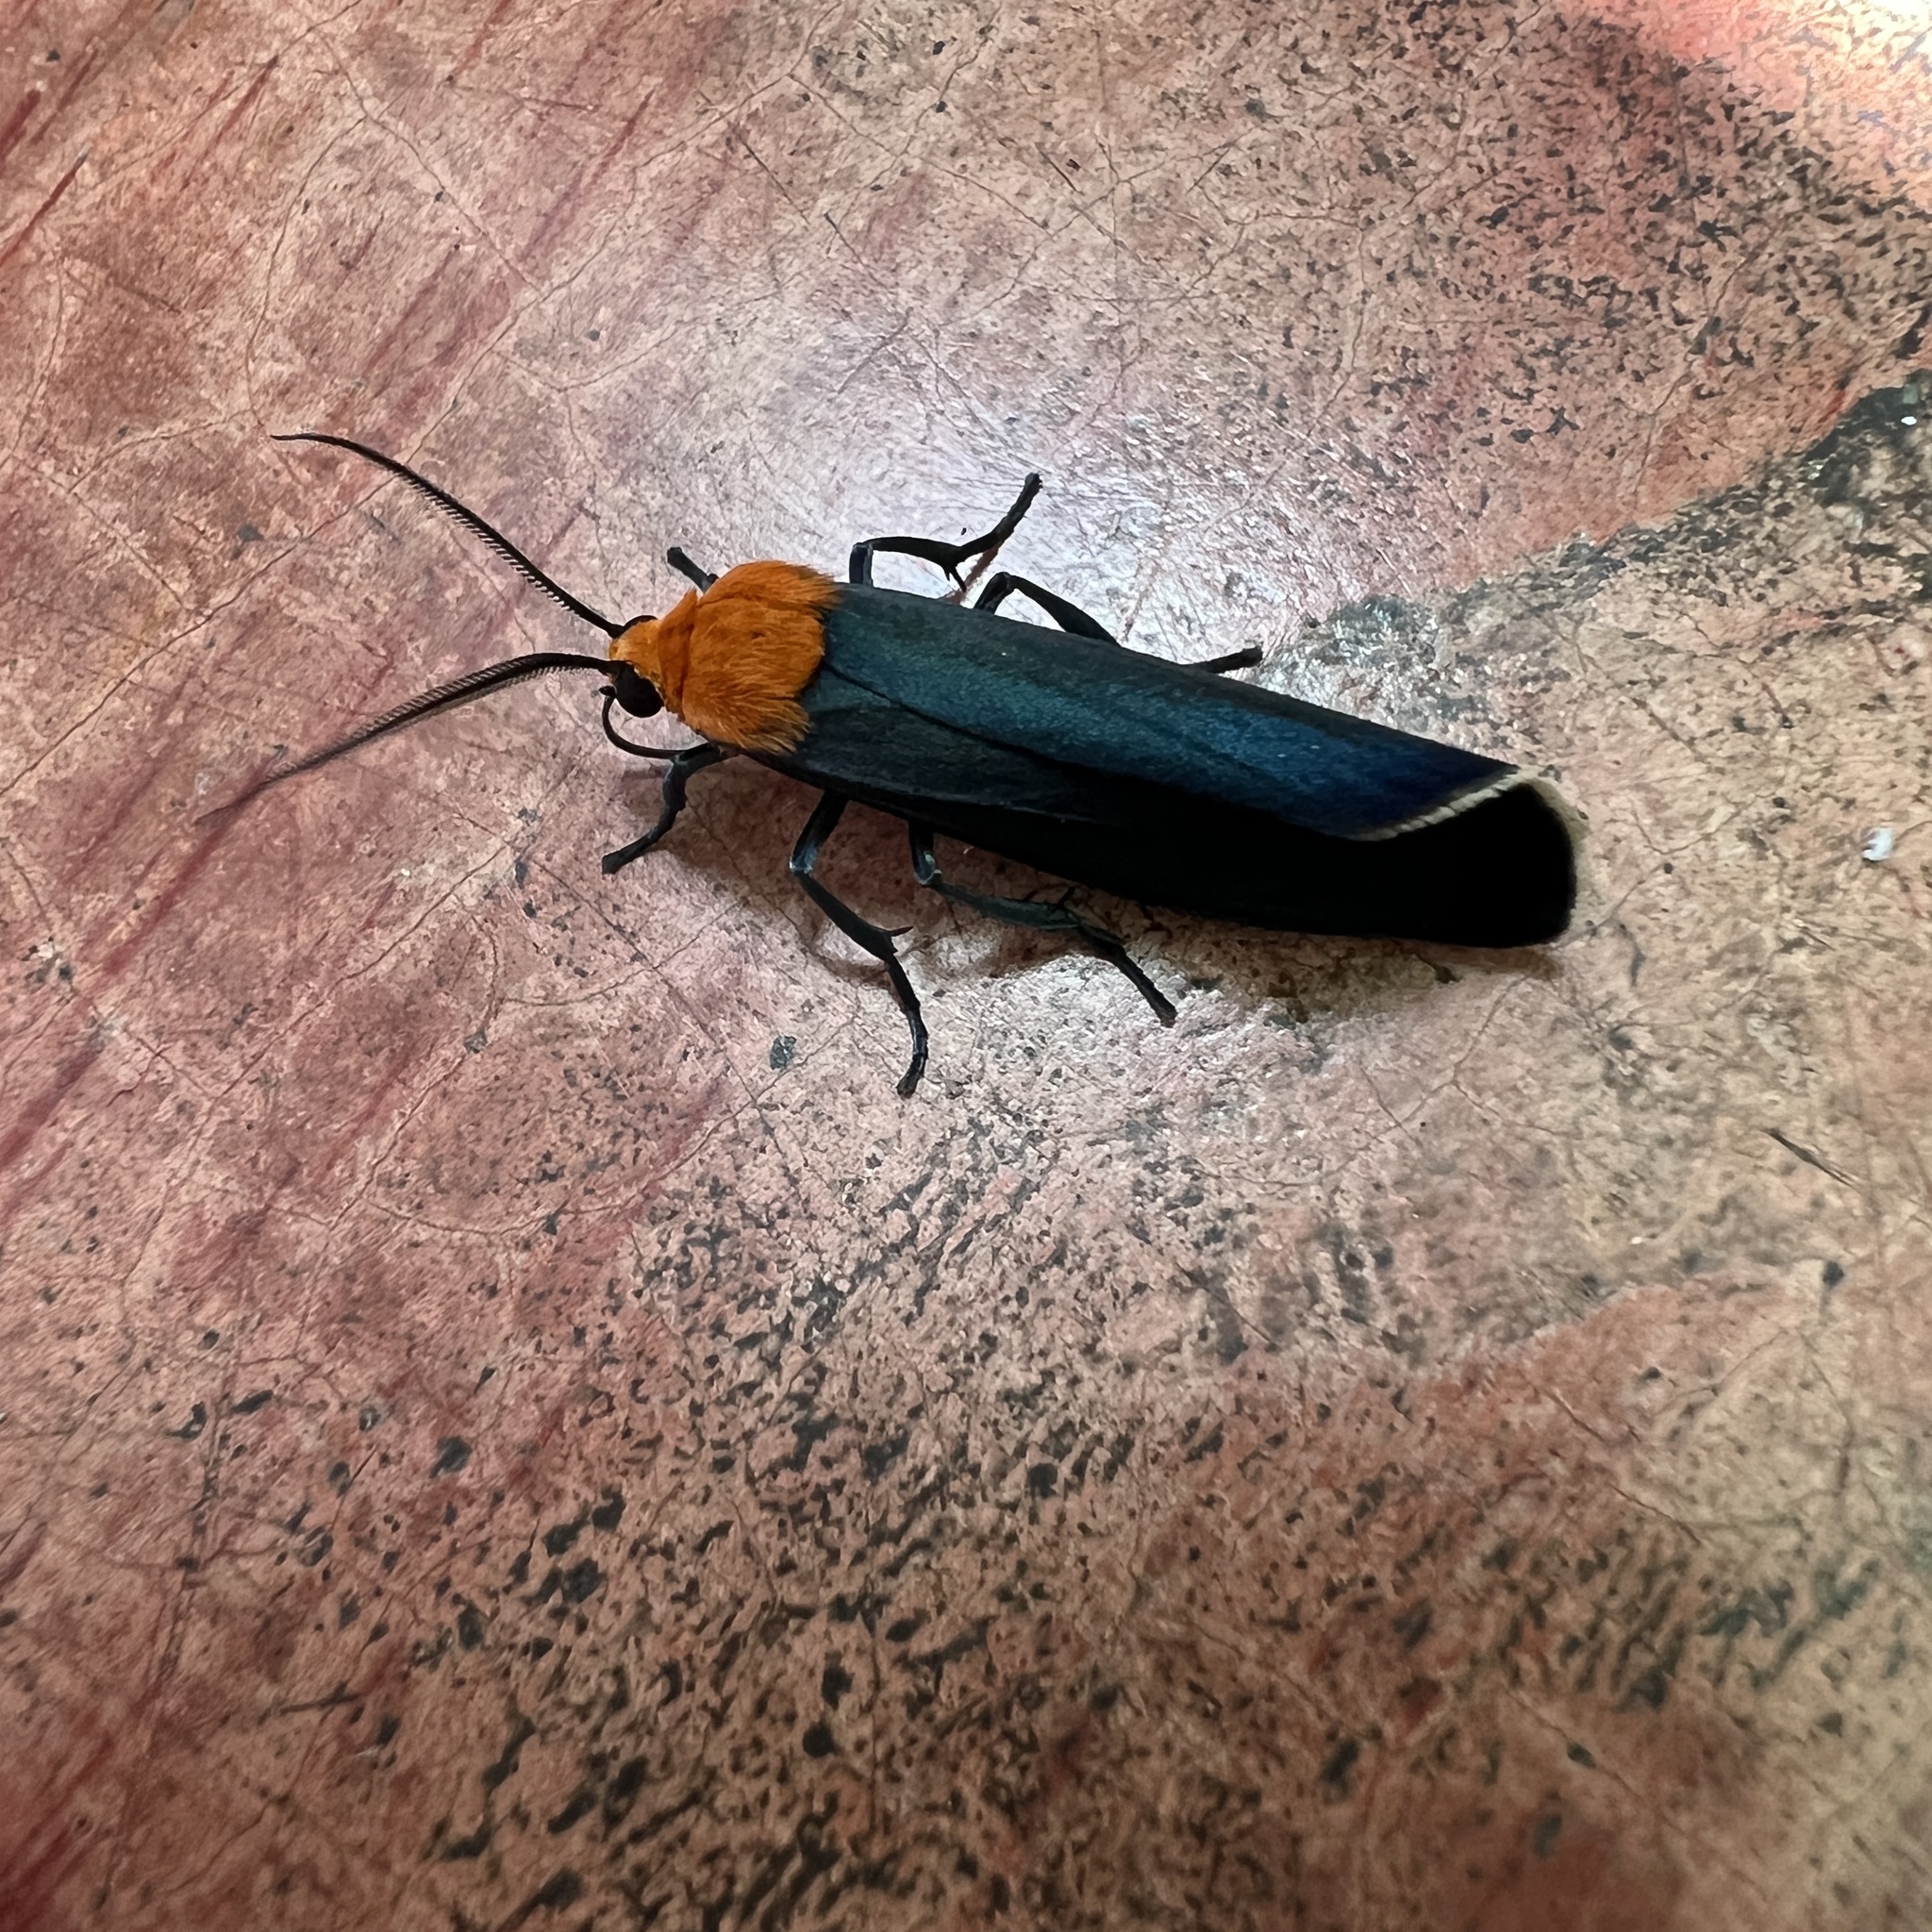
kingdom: Animalia
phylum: Arthropoda
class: Insecta
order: Lepidoptera
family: Erebidae
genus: Apistosia
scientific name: Apistosia judas
